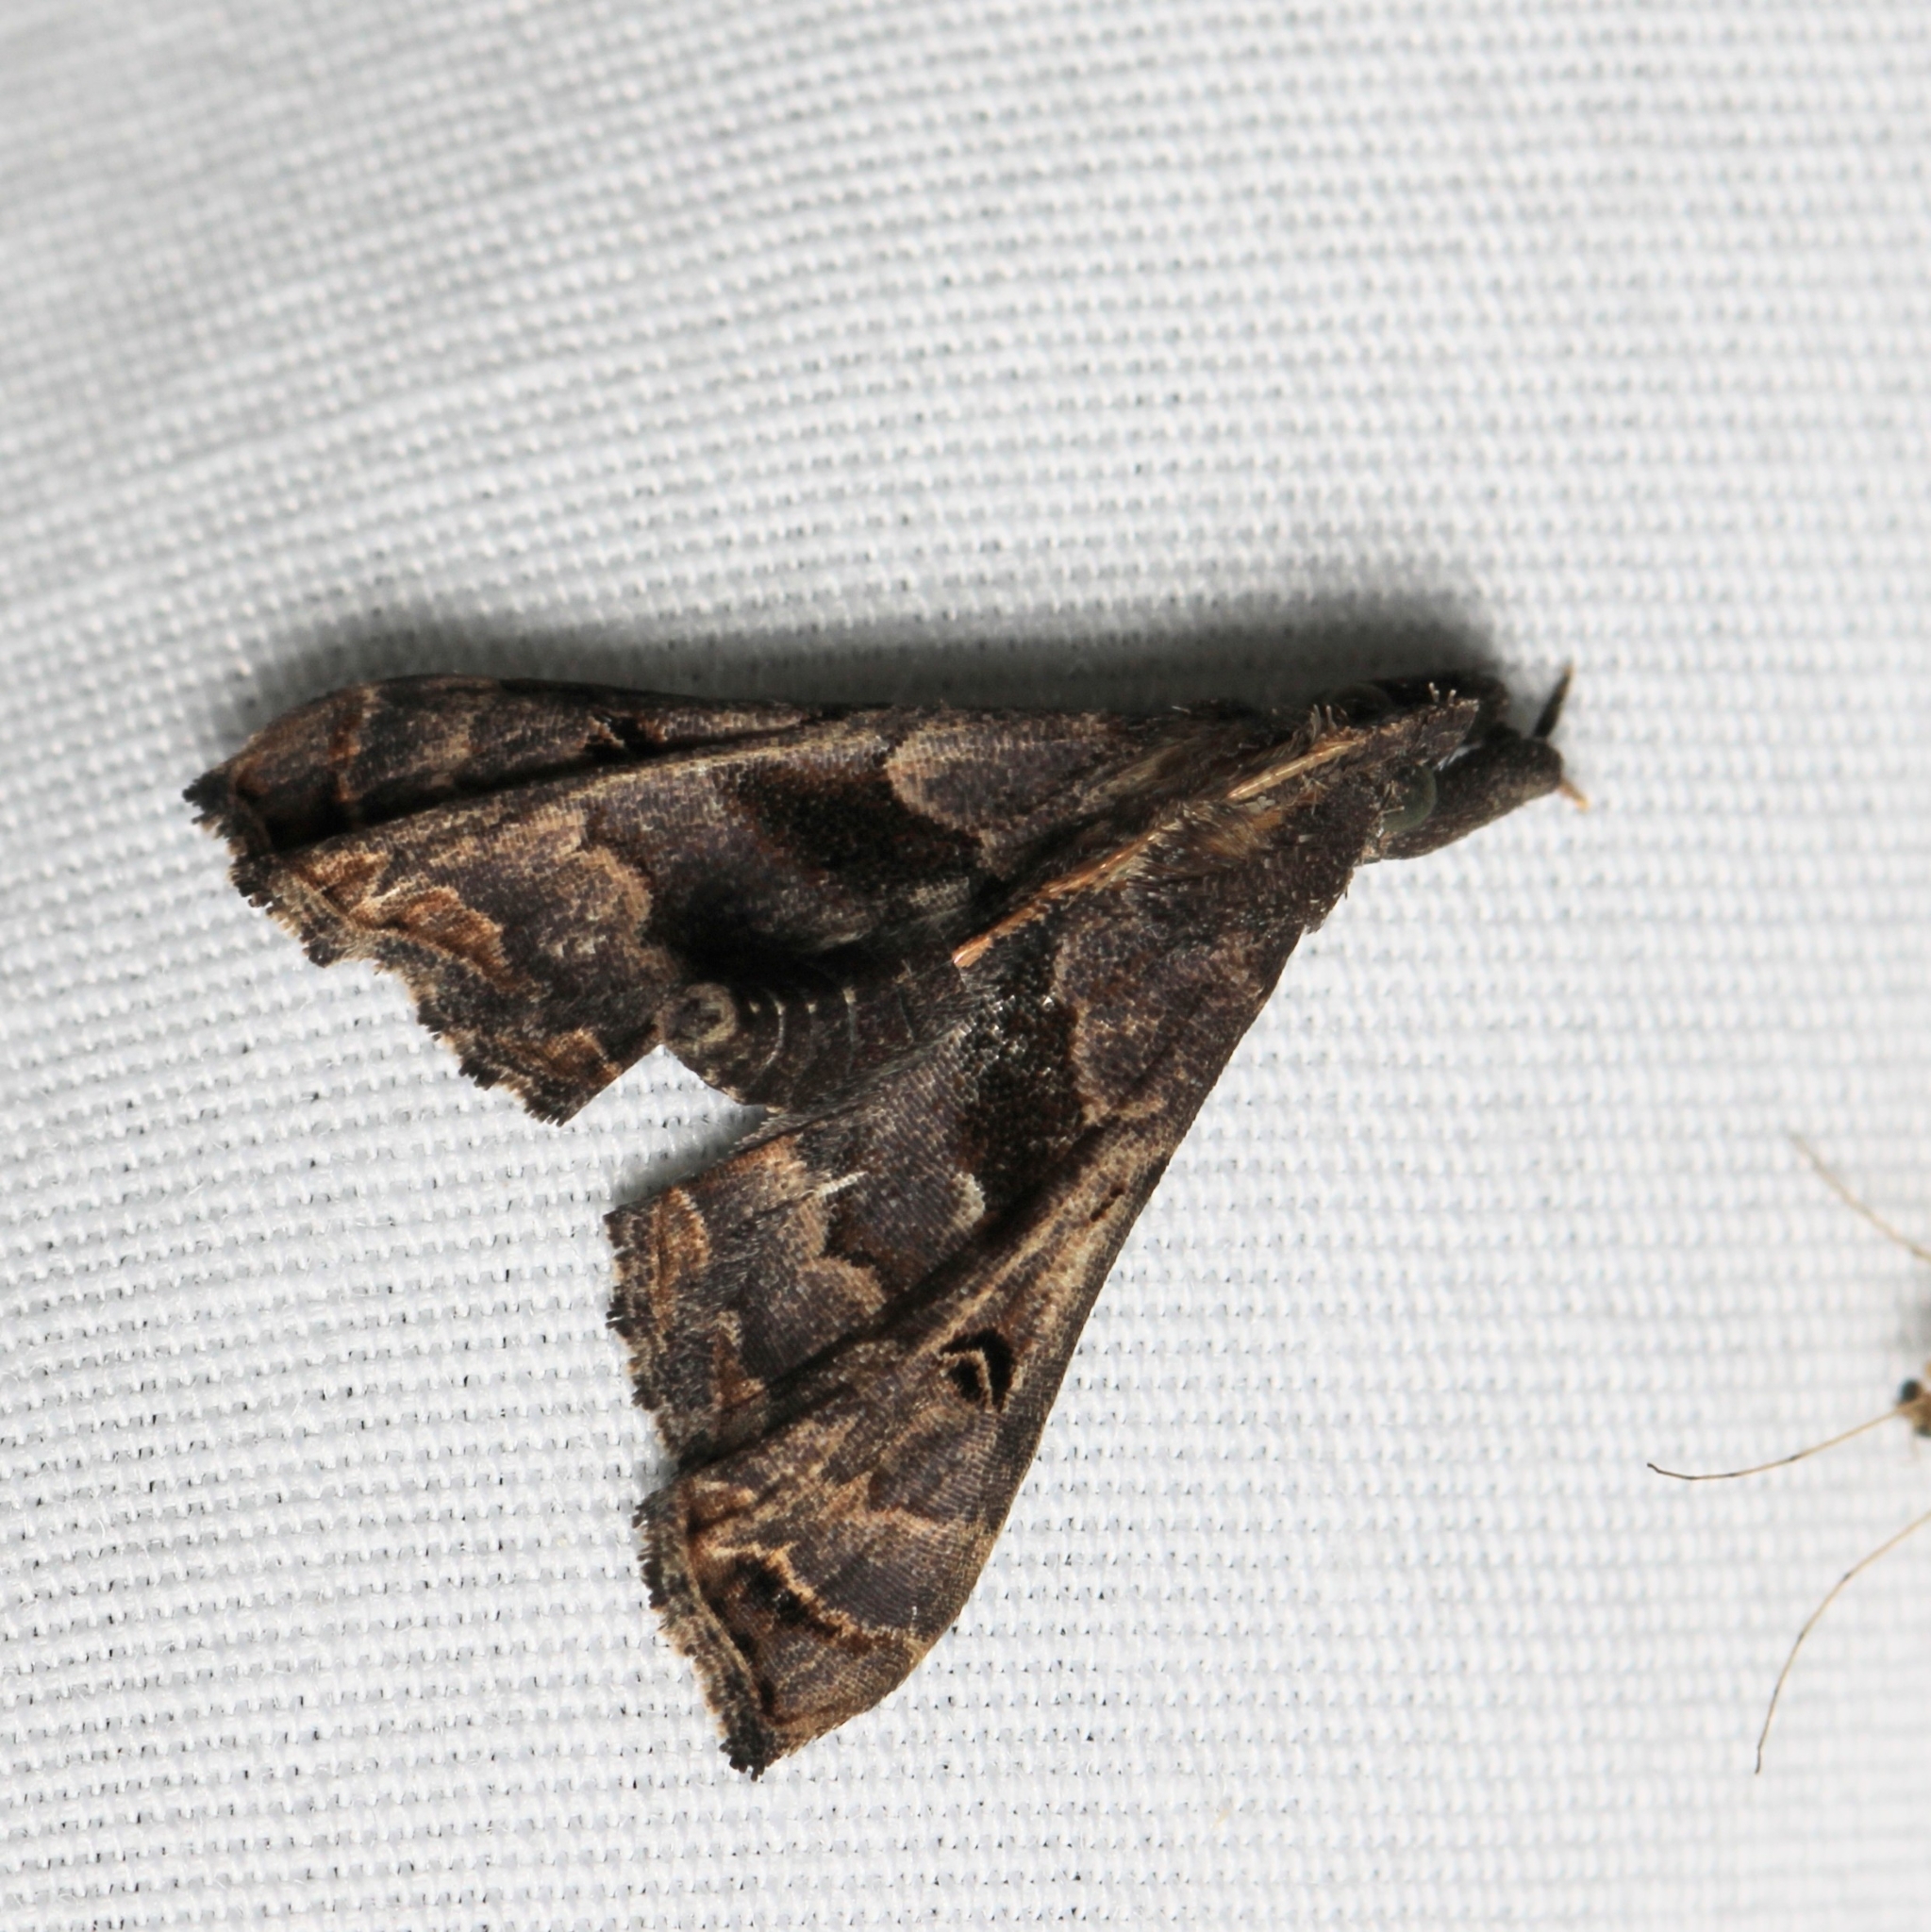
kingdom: Animalia
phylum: Arthropoda
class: Insecta
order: Lepidoptera
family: Erebidae
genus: Palthis
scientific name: Palthis asopialis
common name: Faint-spotted palthis moth
